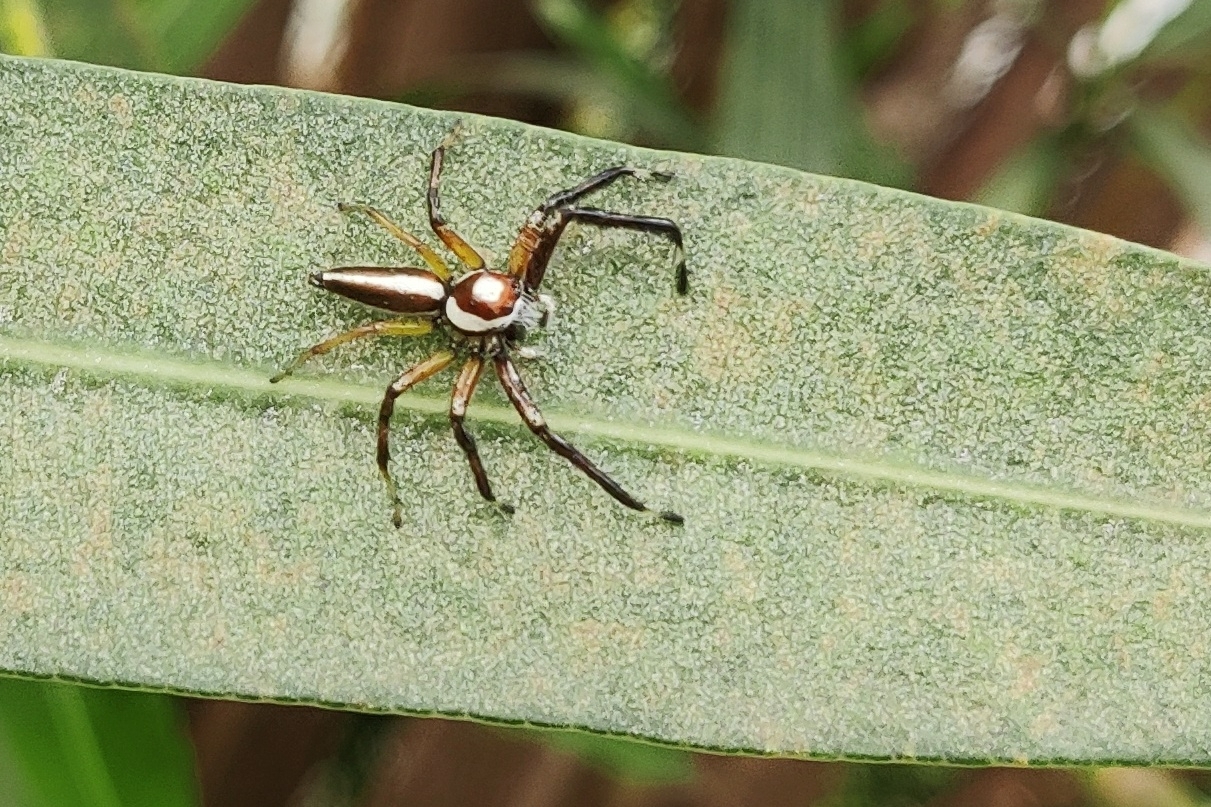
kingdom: Animalia
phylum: Arthropoda
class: Arachnida
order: Araneae
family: Salticidae
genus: Telamonia
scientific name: Telamonia dimidiata
